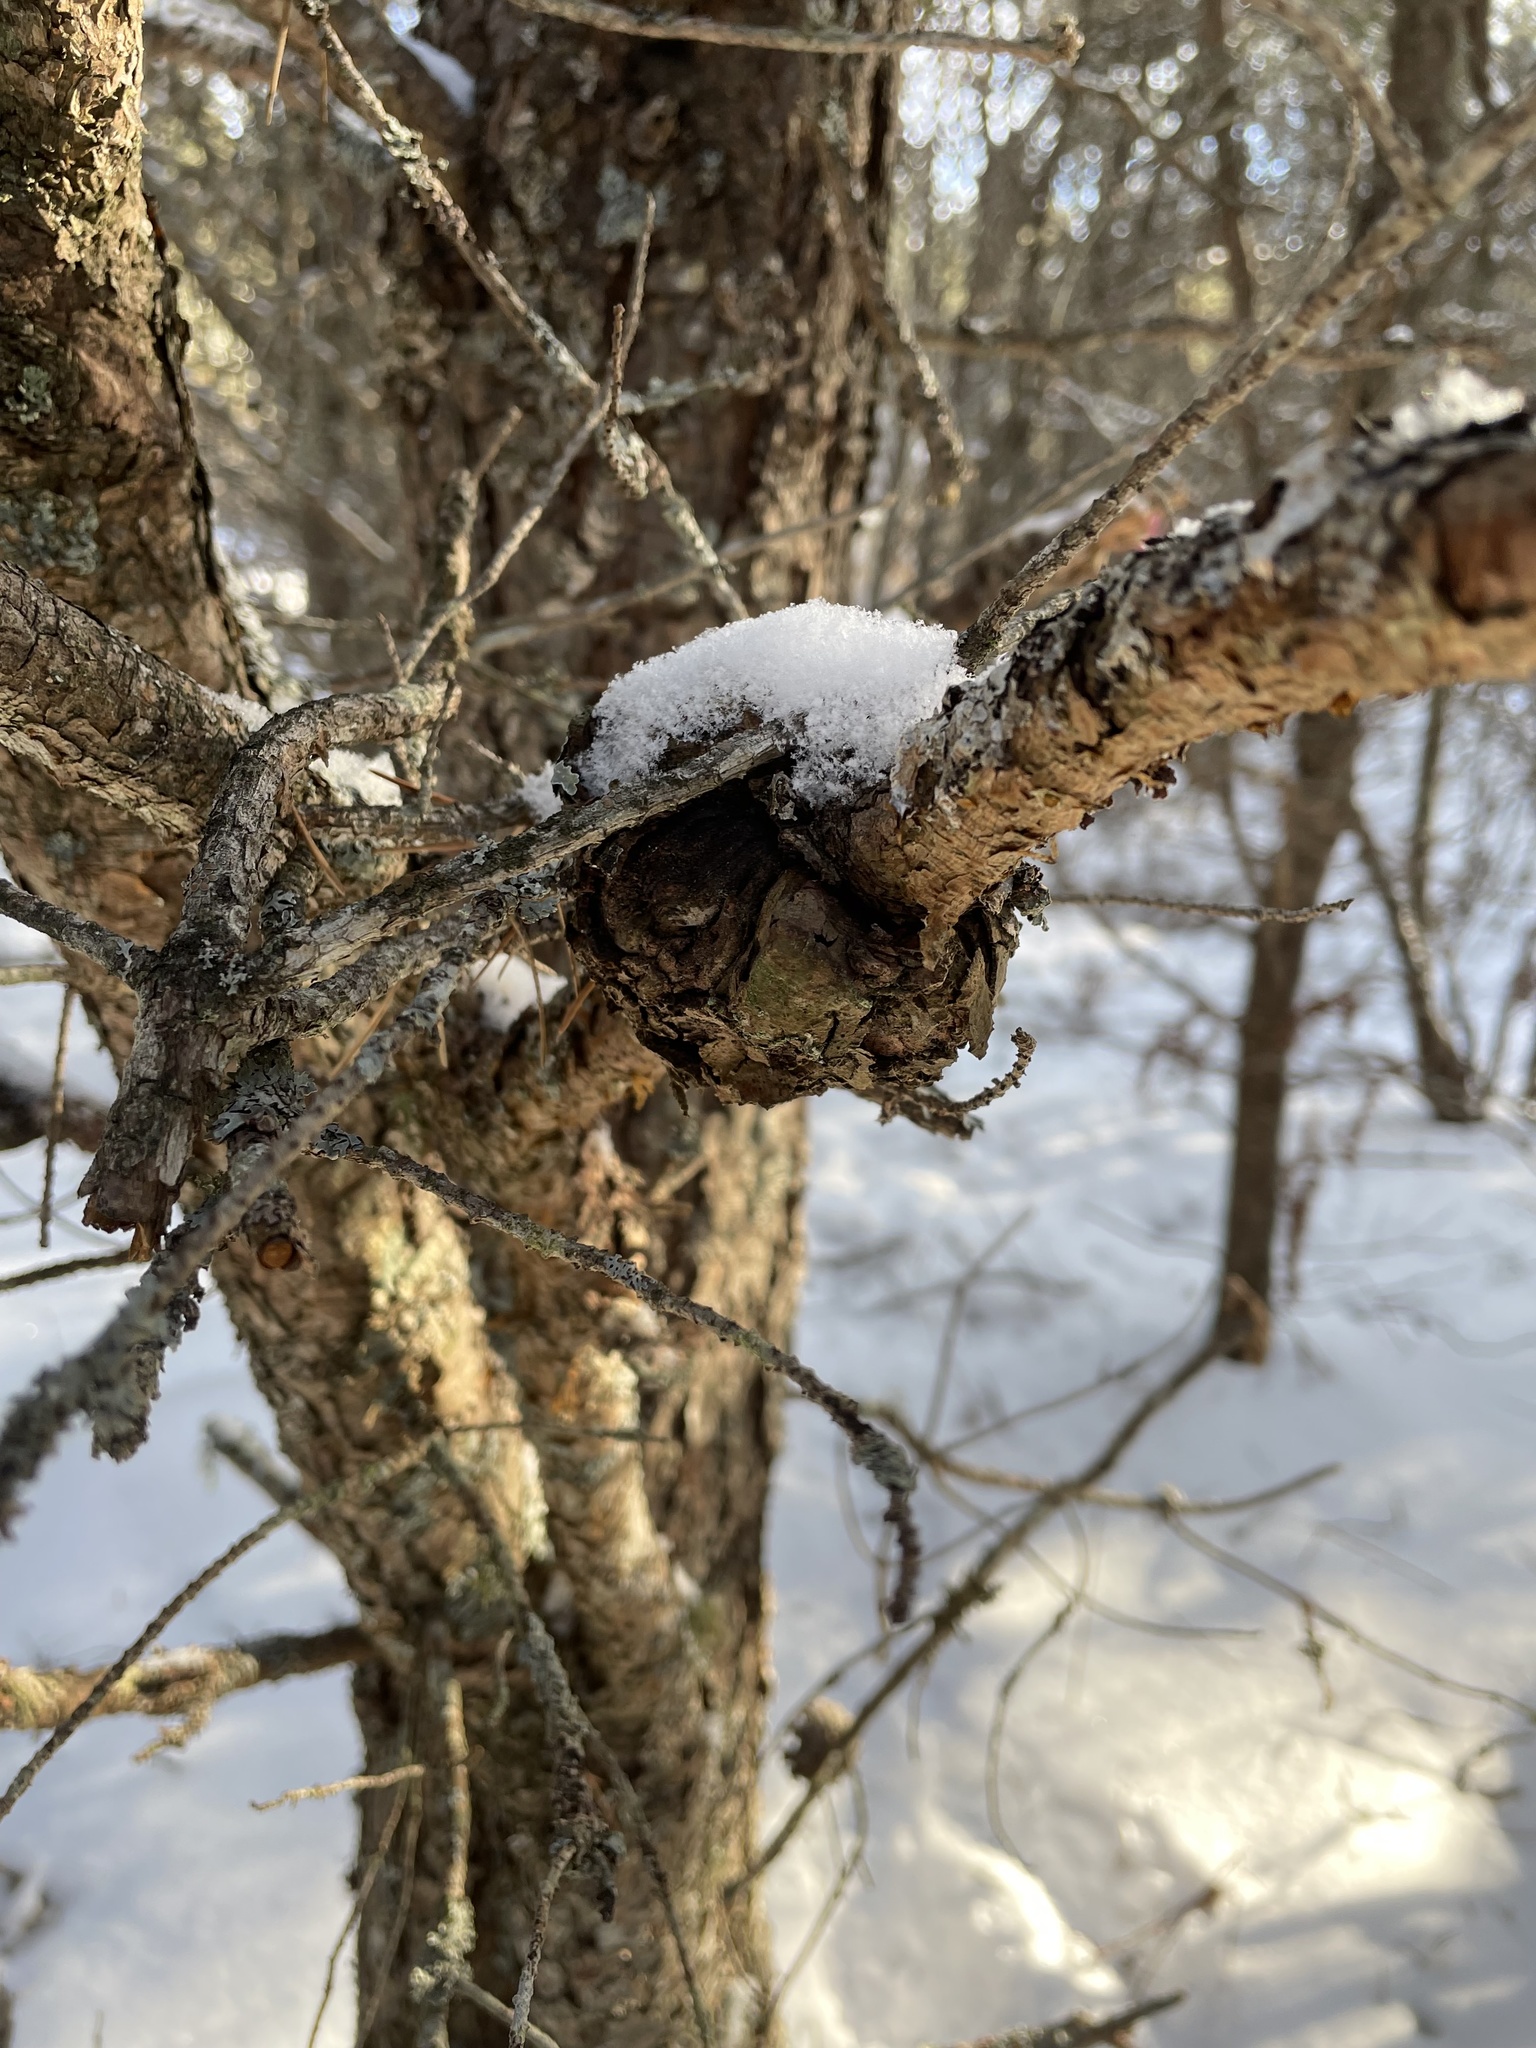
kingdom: Fungi
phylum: Basidiomycota
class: Pucciniomycetes
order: Pucciniales
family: Cronartiaceae
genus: Cronartium
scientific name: Cronartium quercuum
